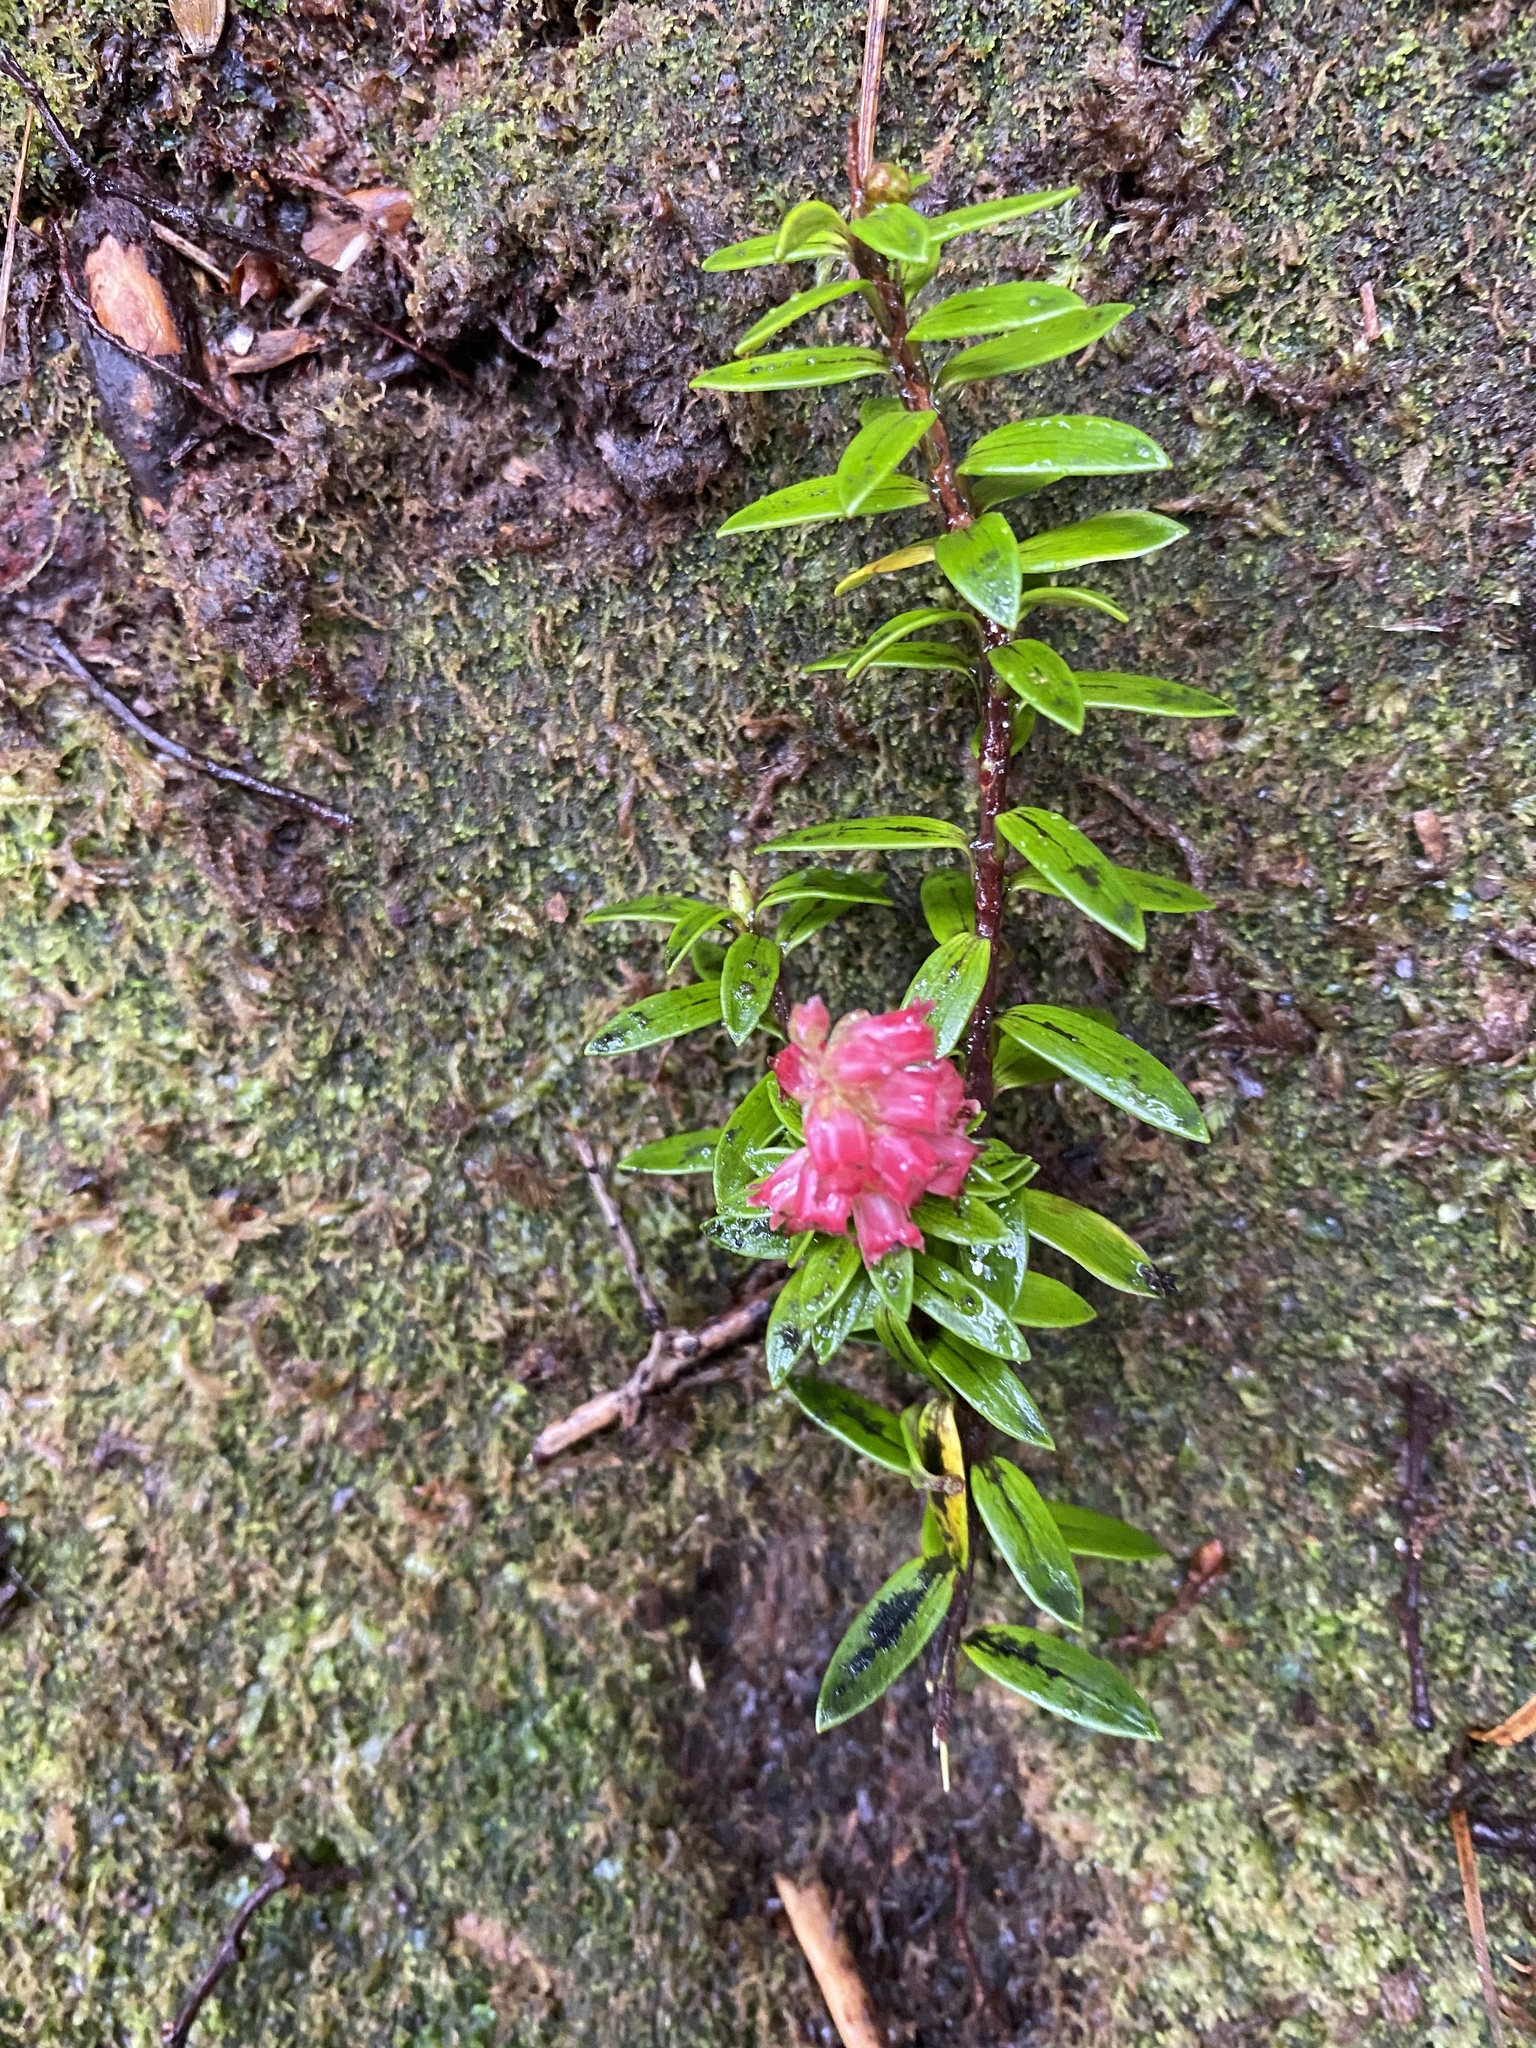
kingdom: Plantae
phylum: Tracheophyta
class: Magnoliopsida
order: Ericales
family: Ericaceae
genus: Archeria
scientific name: Archeria traversii
